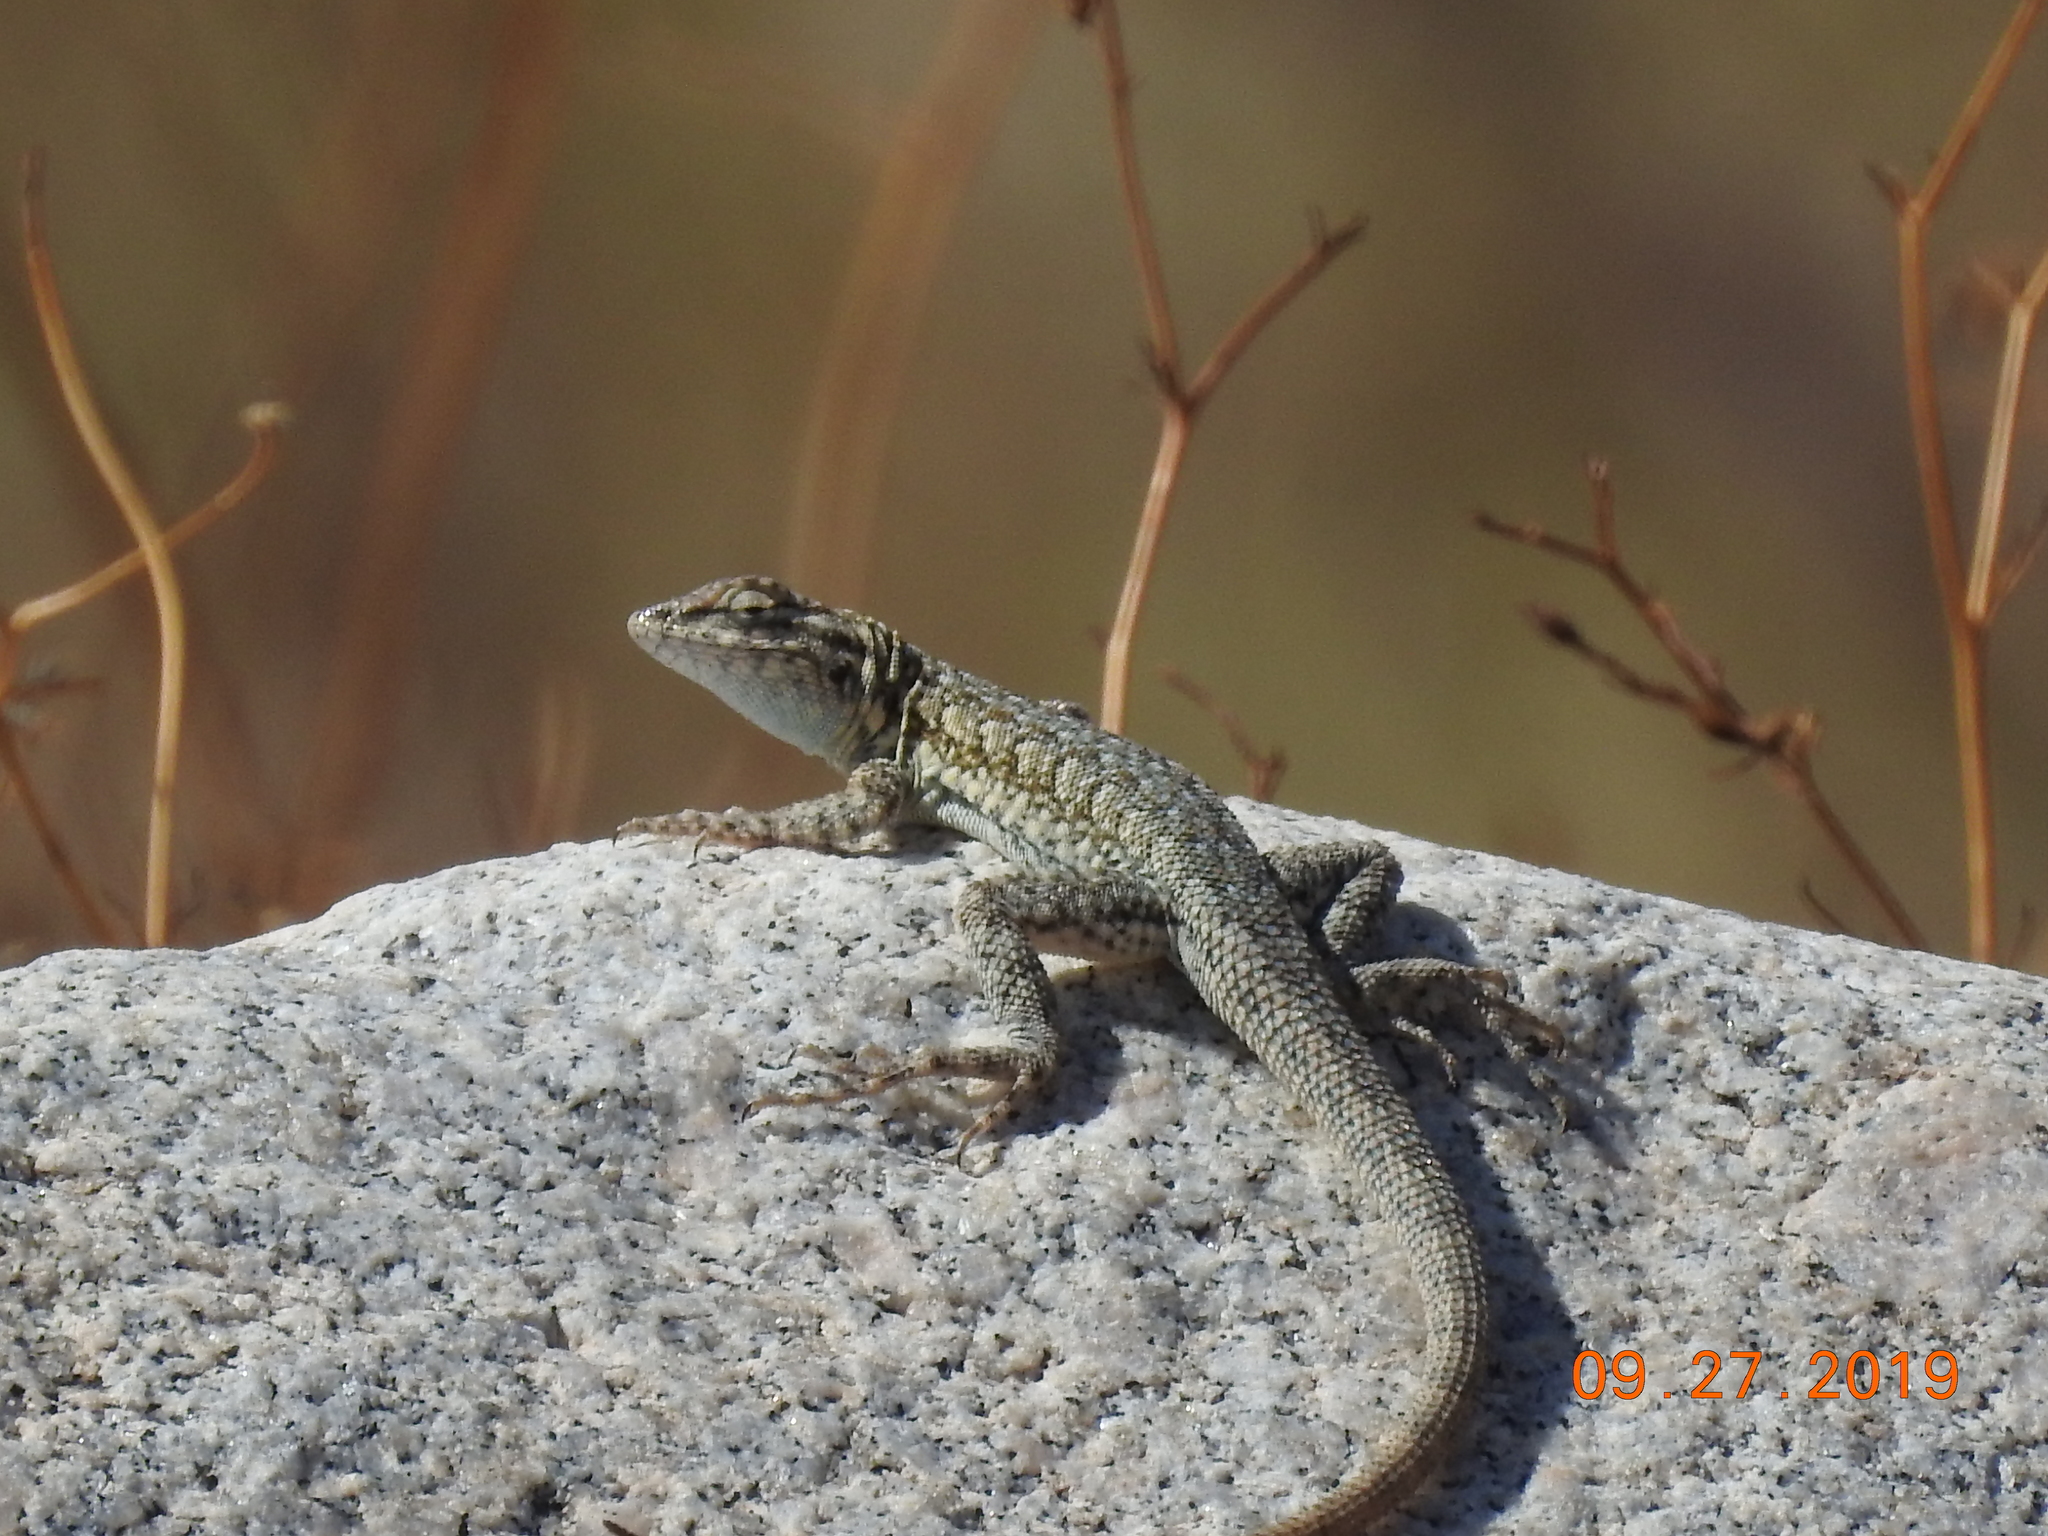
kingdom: Animalia
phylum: Chordata
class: Squamata
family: Phrynosomatidae
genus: Uta
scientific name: Uta stansburiana
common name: Side-blotched lizard
